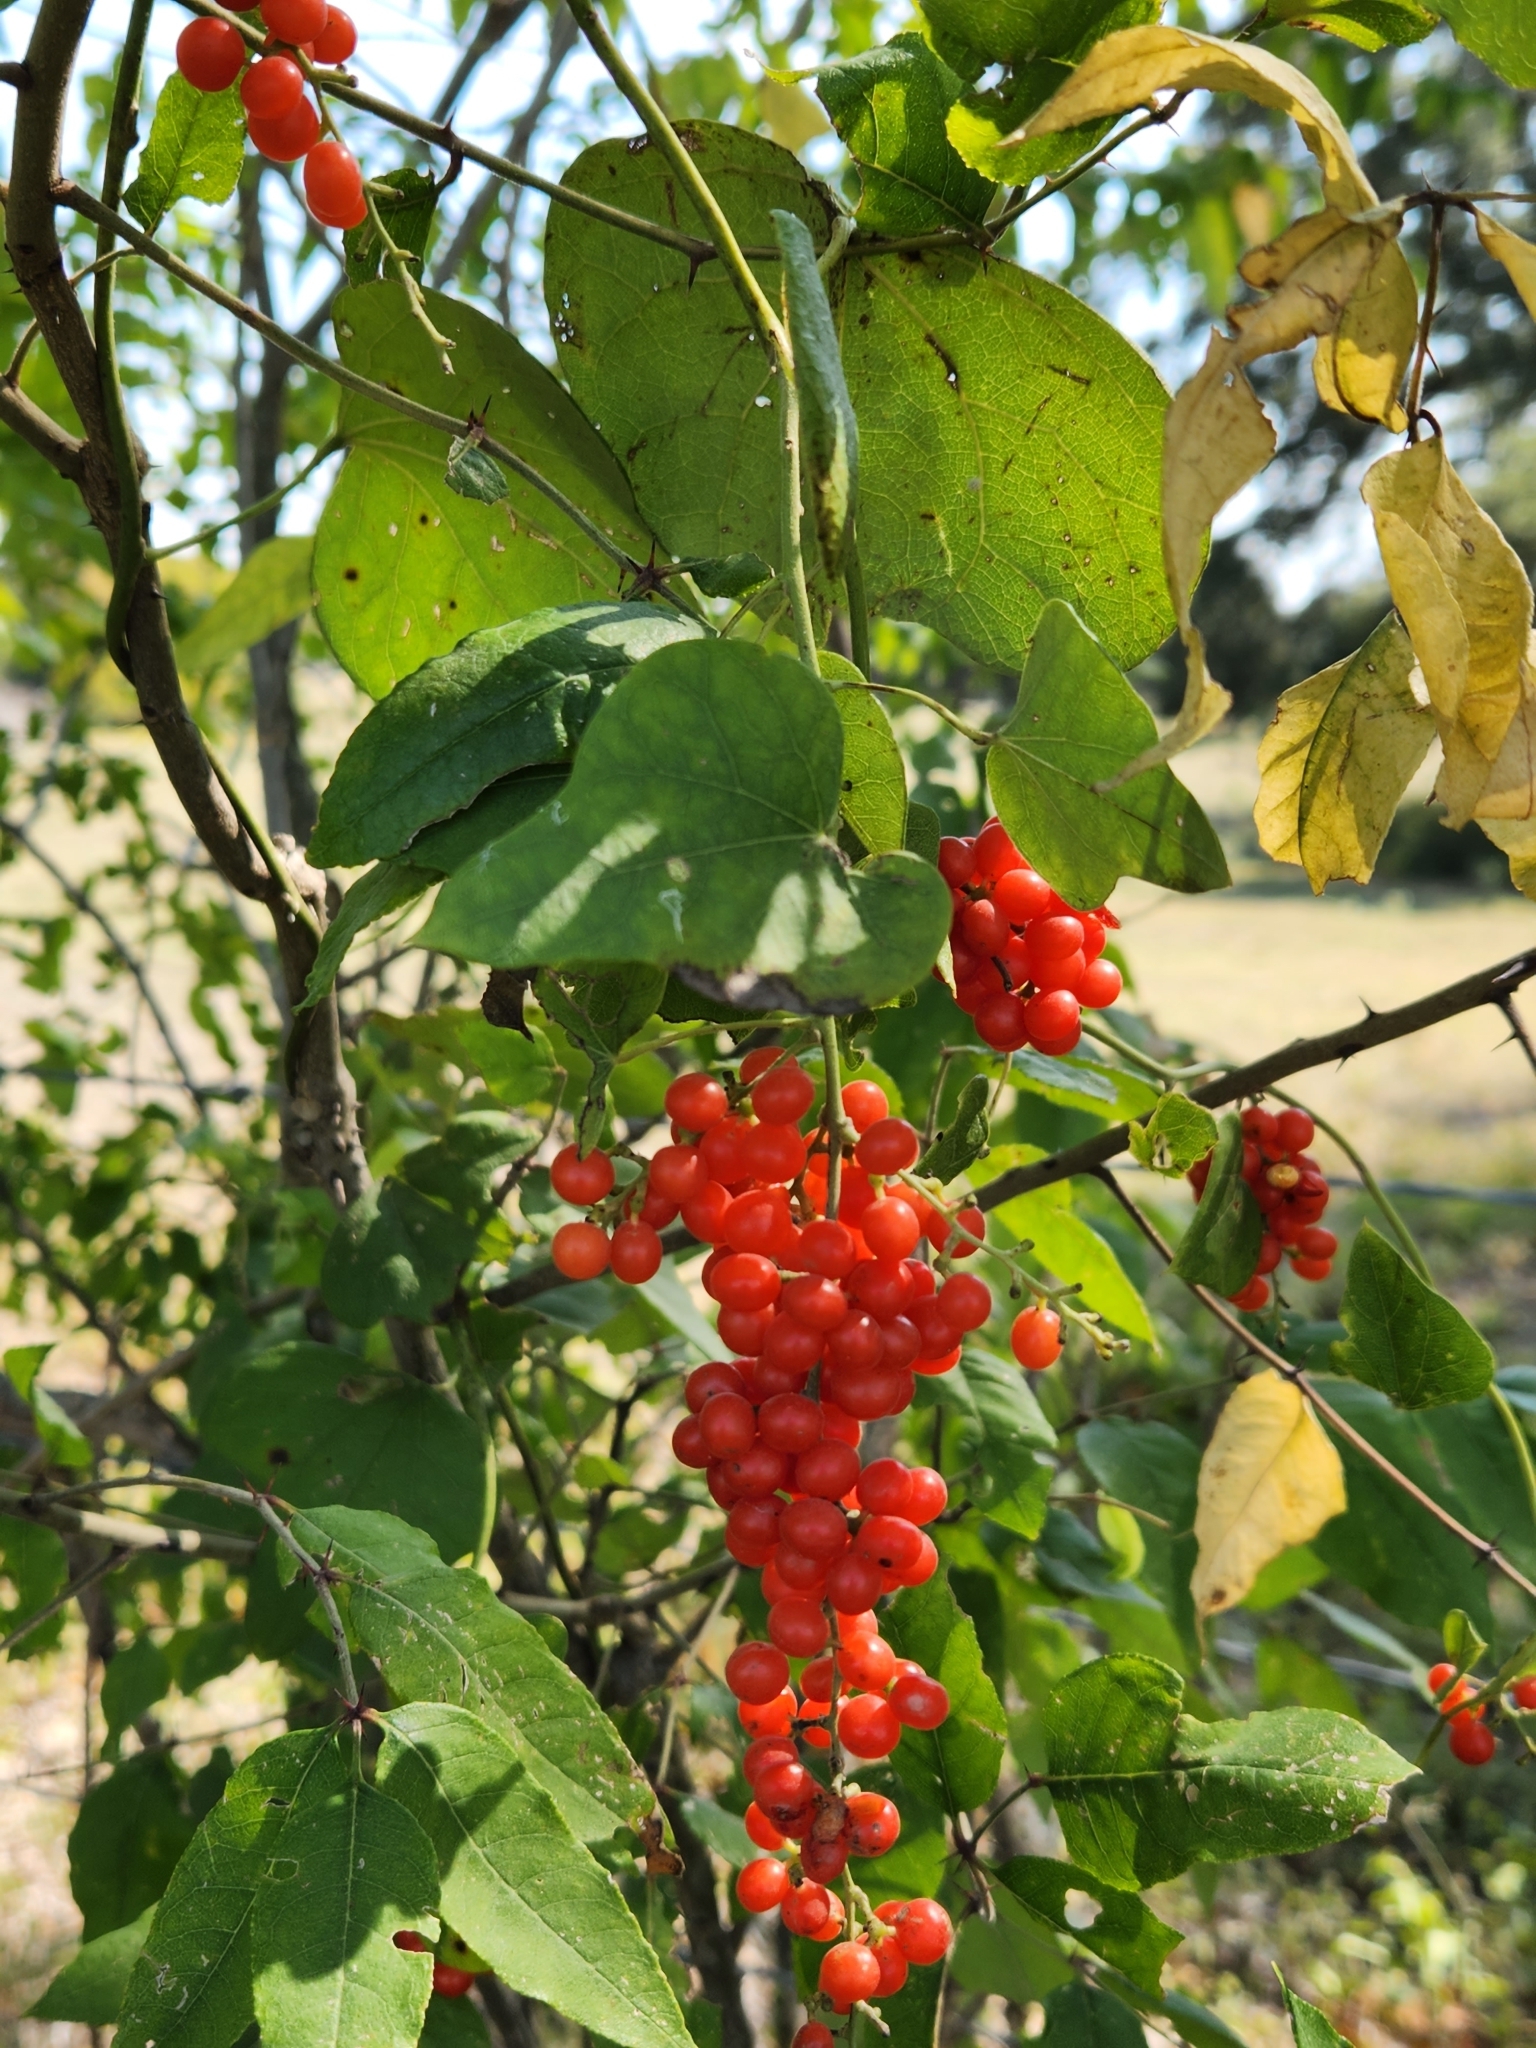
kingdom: Plantae
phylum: Tracheophyta
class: Magnoliopsida
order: Ranunculales
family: Menispermaceae
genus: Cocculus
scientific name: Cocculus carolinus
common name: Carolina moonseed
